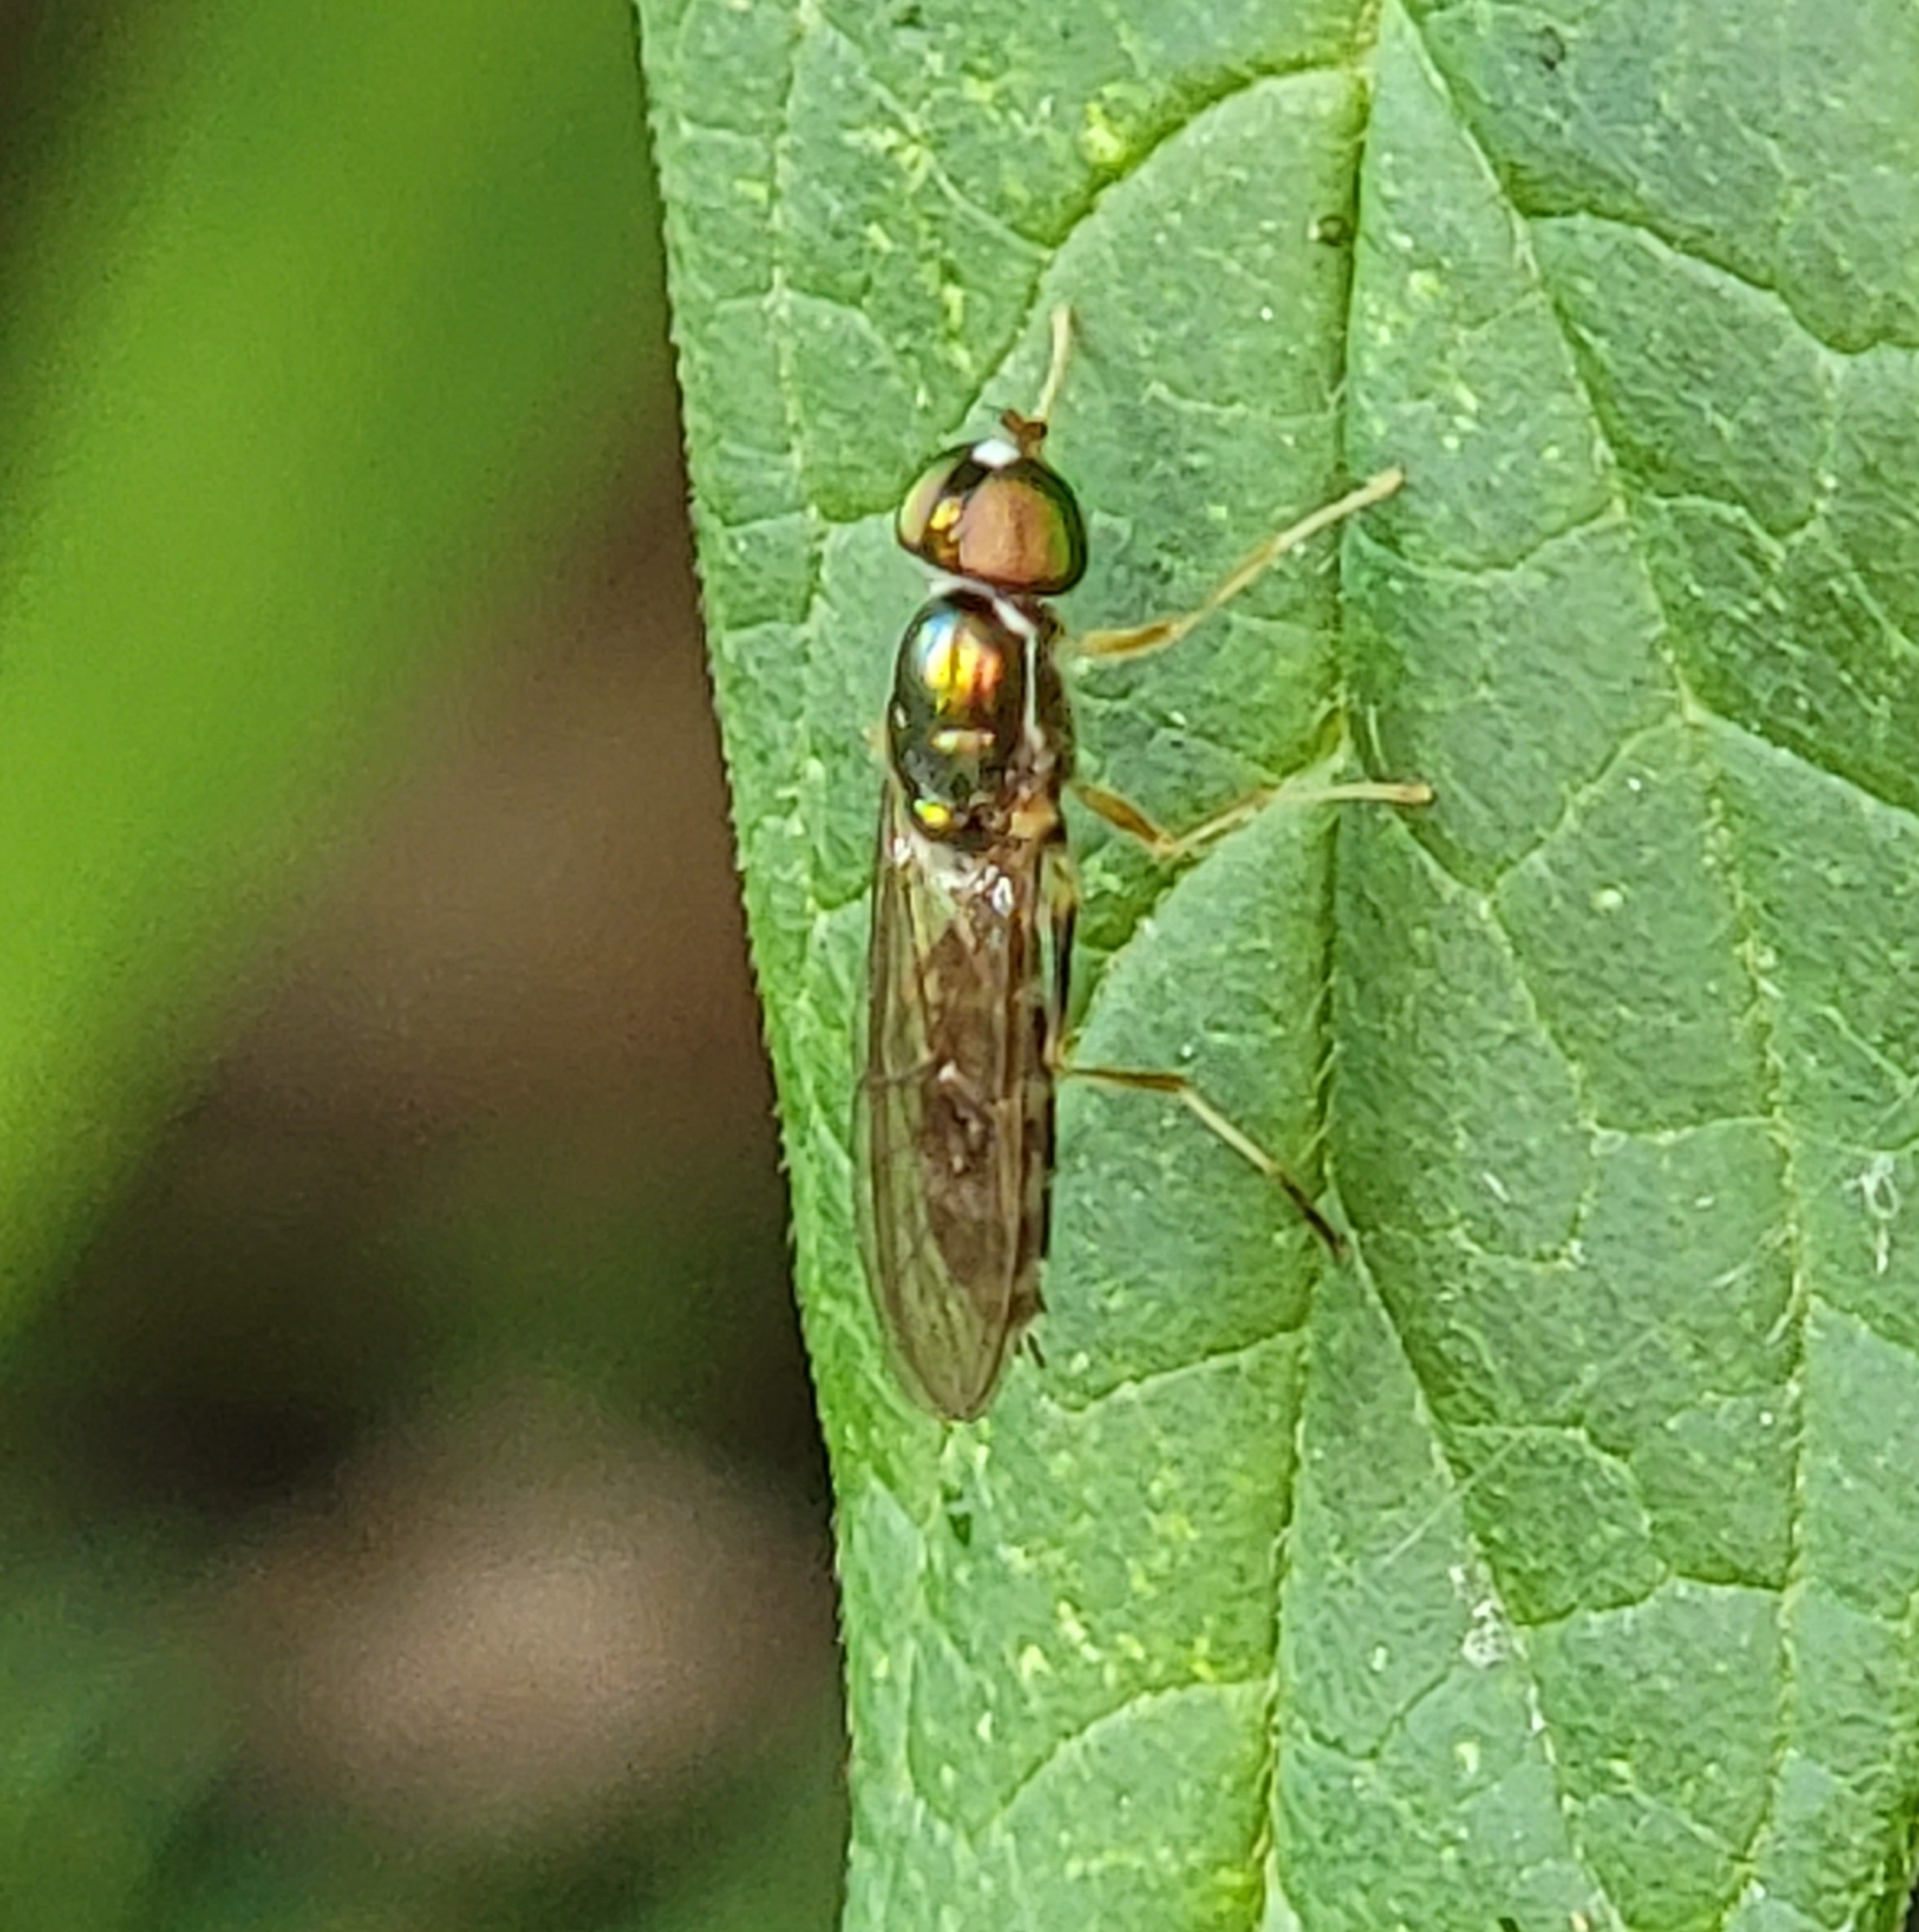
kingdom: Animalia
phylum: Arthropoda
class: Insecta
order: Diptera
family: Stratiomyidae
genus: Sargus
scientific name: Sargus fasciatus
